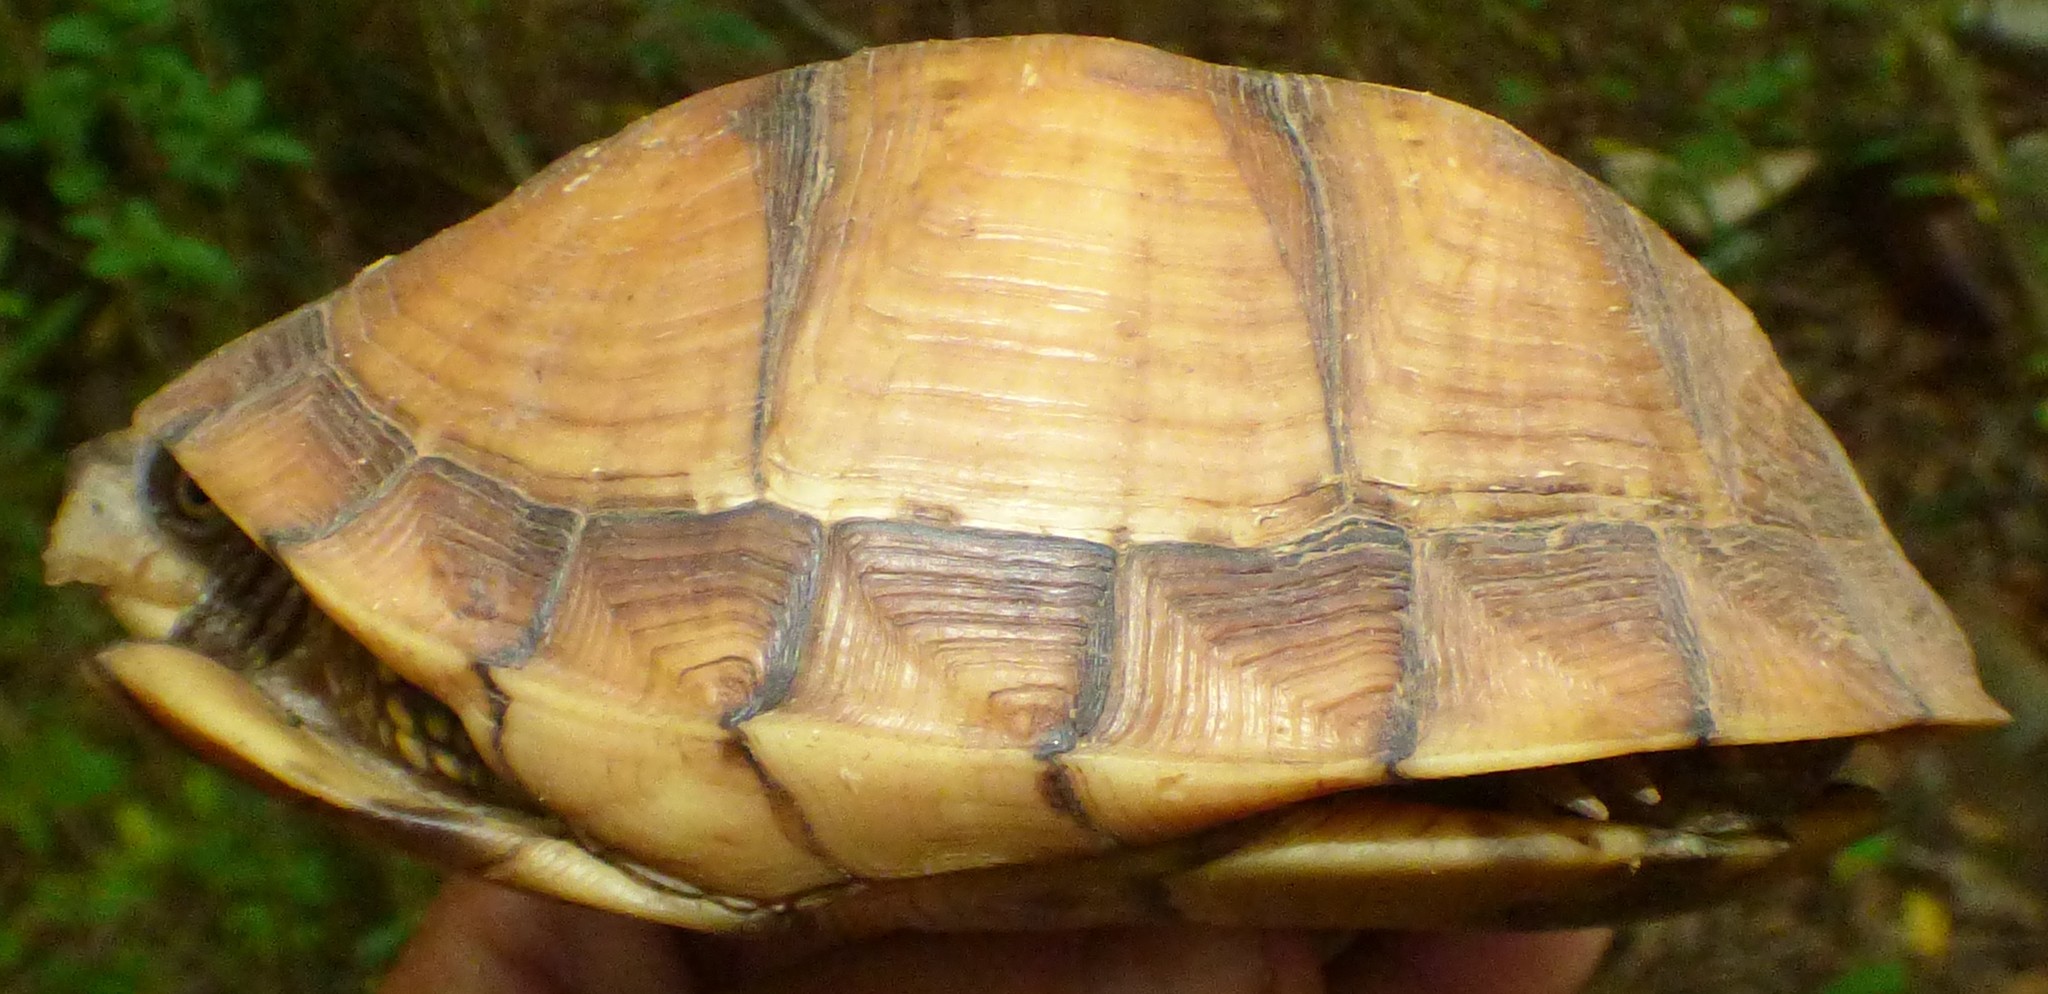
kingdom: Animalia
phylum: Chordata
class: Testudines
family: Emydidae
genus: Terrapene
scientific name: Terrapene carolina
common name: Common box turtle
